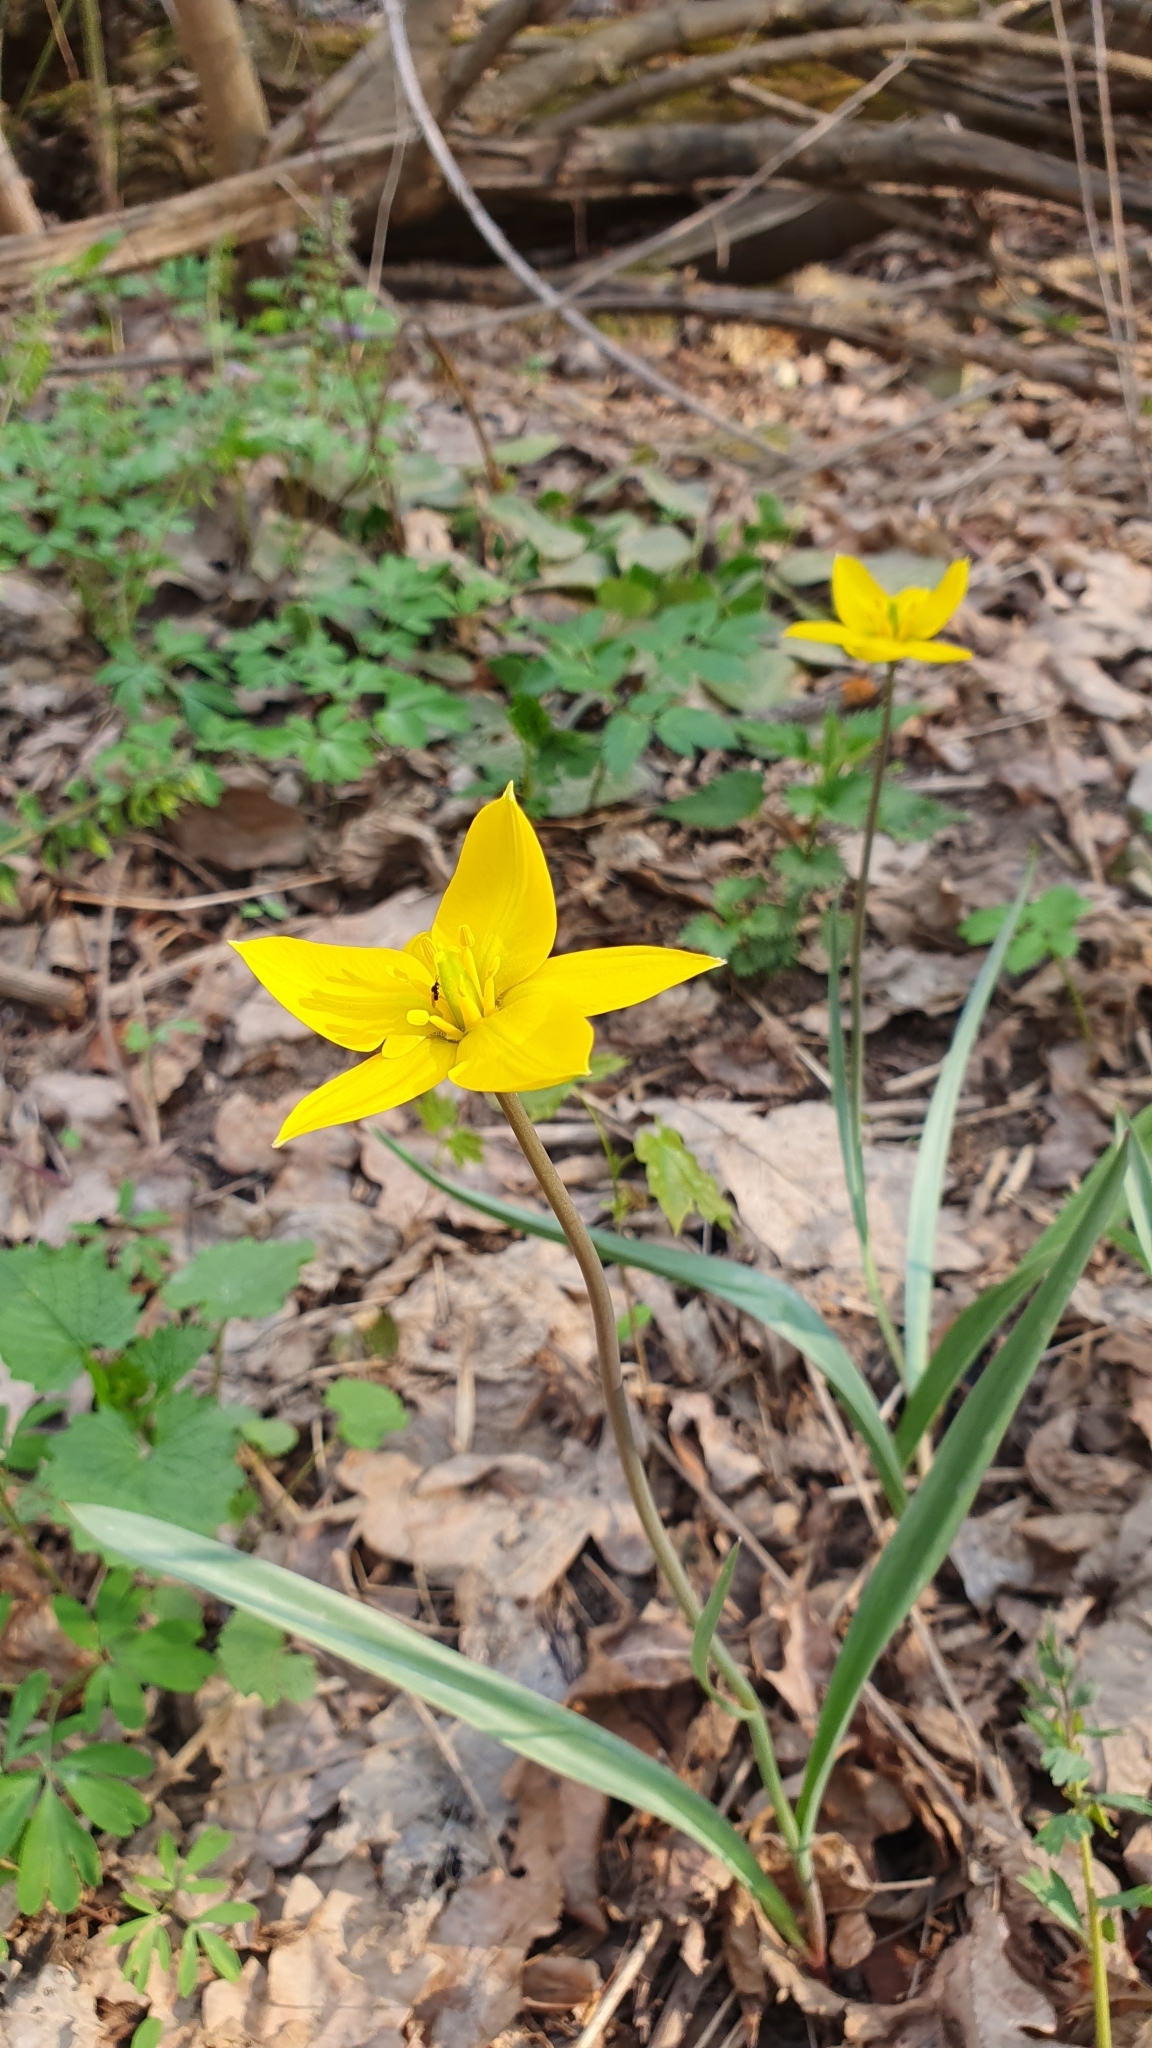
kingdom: Plantae
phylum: Tracheophyta
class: Liliopsida
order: Liliales
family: Liliaceae
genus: Tulipa
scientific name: Tulipa sylvestris
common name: Wild tulip
